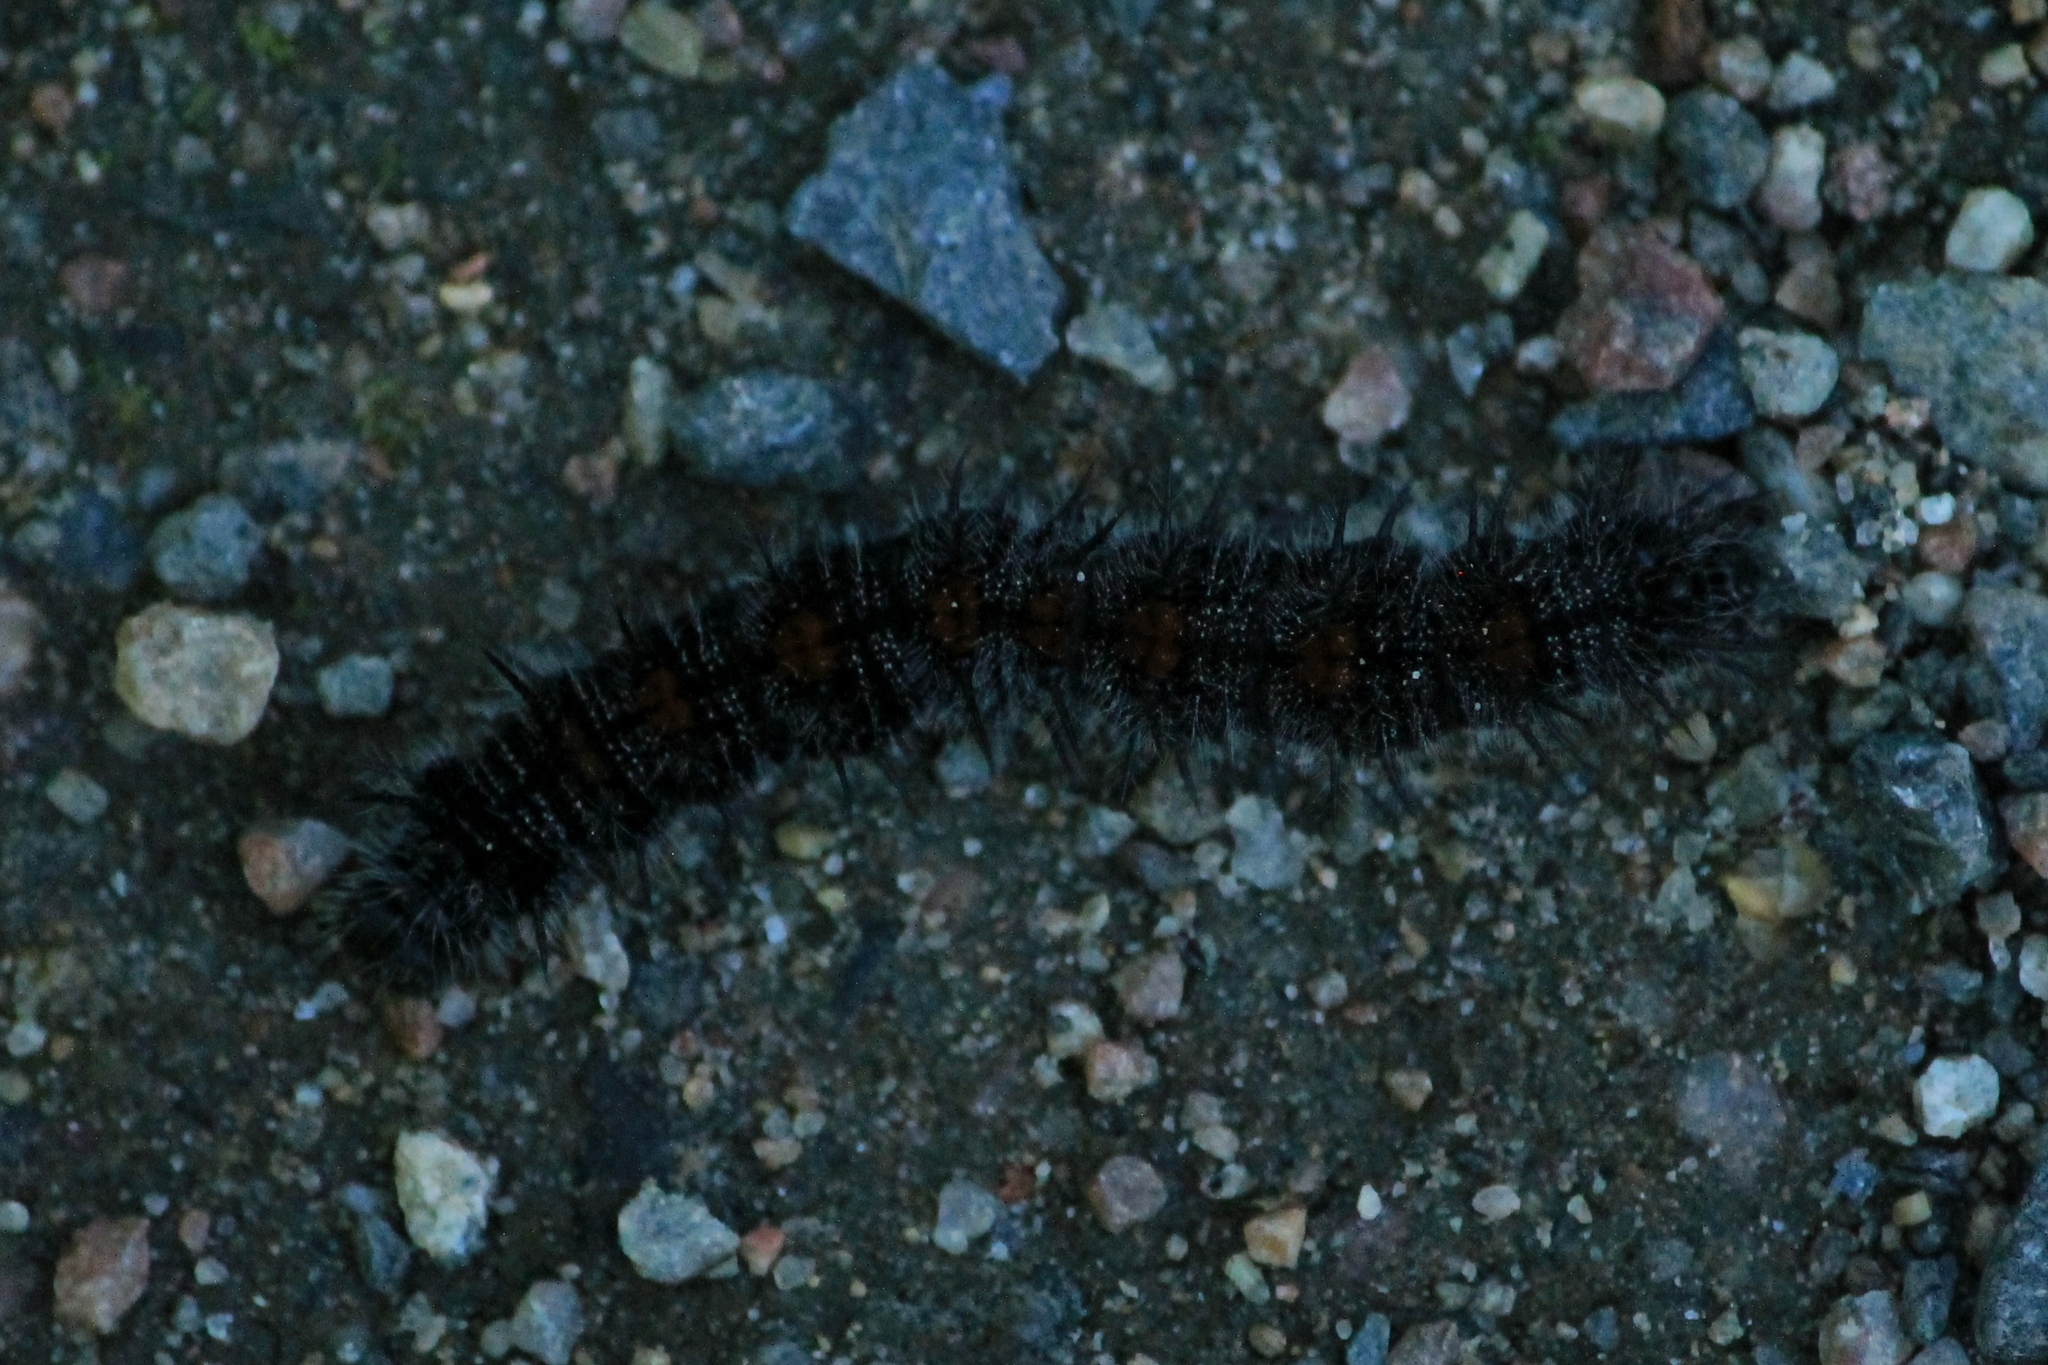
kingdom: Animalia
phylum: Arthropoda
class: Insecta
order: Lepidoptera
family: Nymphalidae
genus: Nymphalis
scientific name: Nymphalis antiopa
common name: Camberwell beauty
